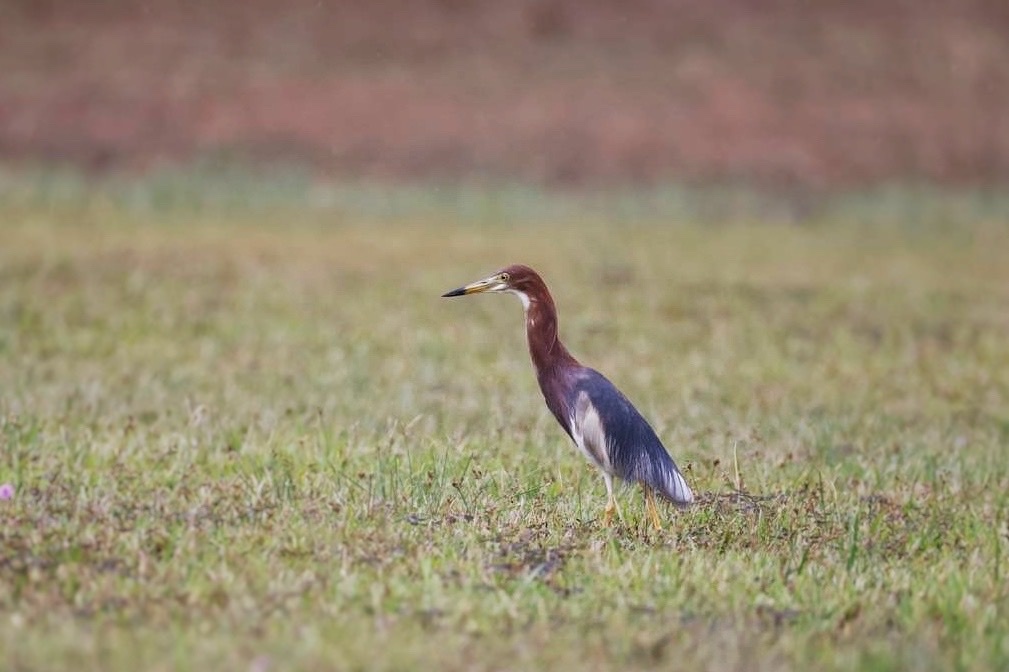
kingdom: Animalia
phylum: Chordata
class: Aves
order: Pelecaniformes
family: Ardeidae
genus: Ardeola
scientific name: Ardeola bacchus
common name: Chinese pond heron
